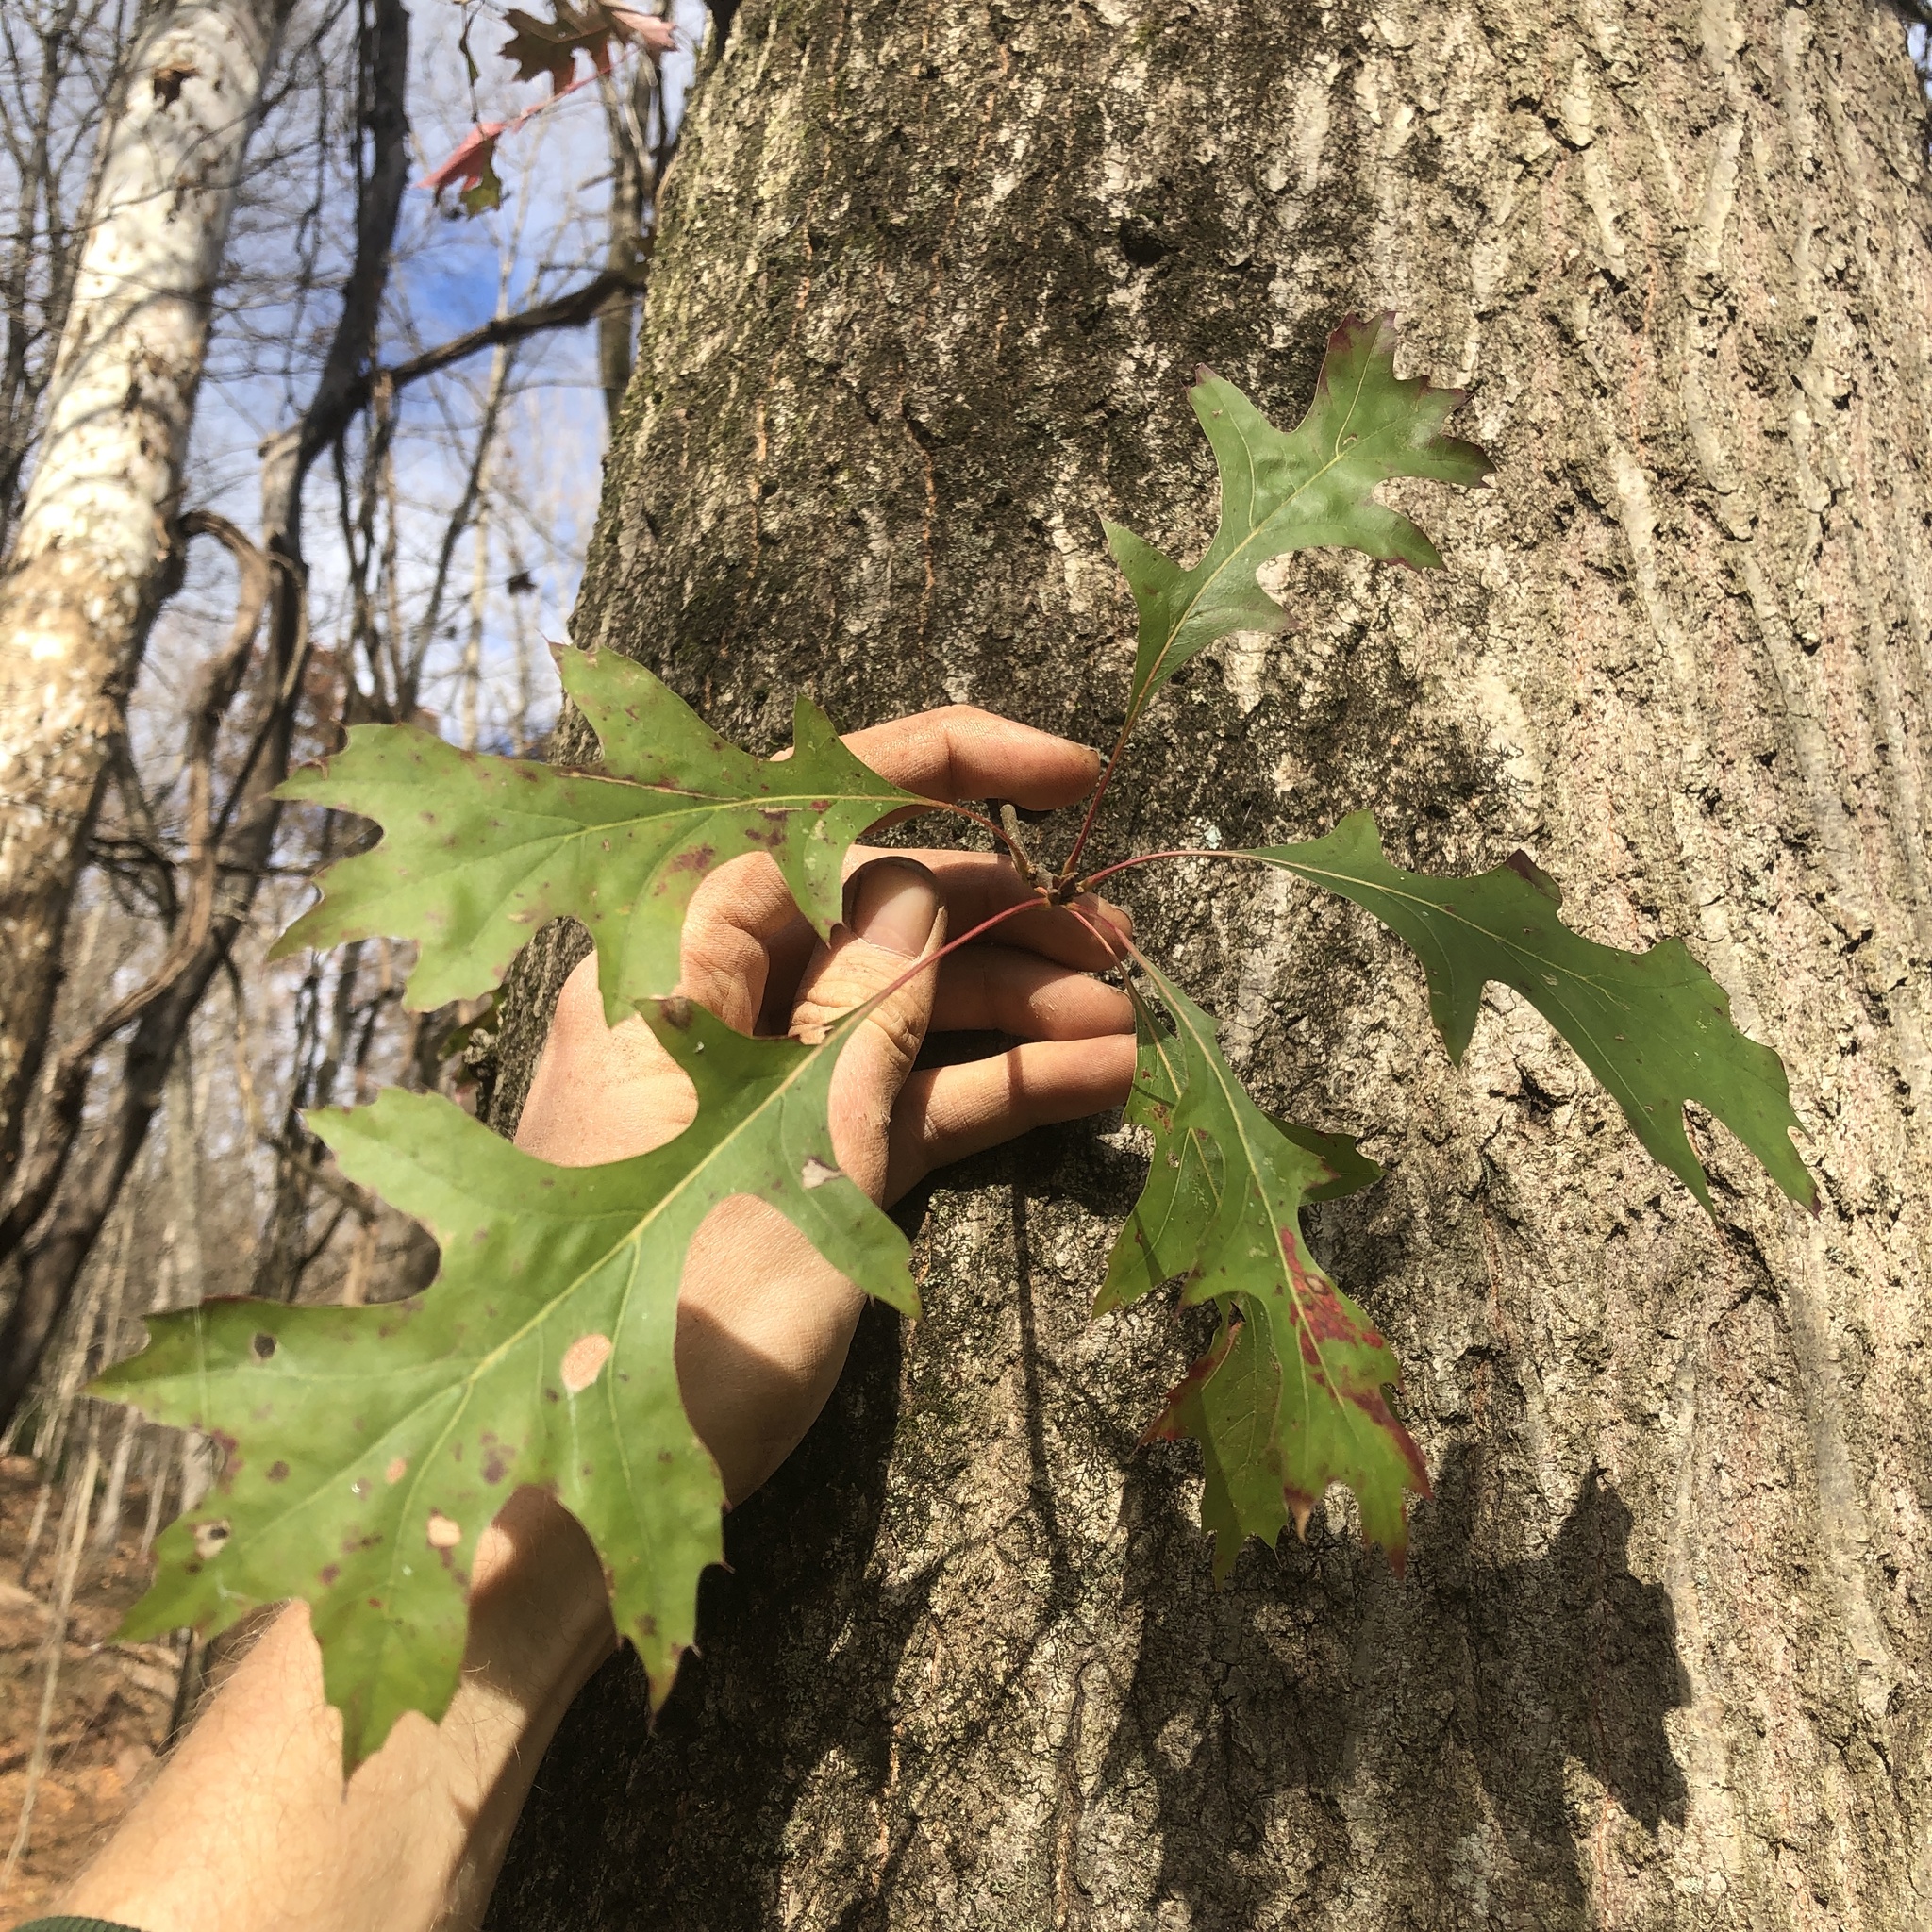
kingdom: Plantae
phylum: Tracheophyta
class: Magnoliopsida
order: Fagales
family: Fagaceae
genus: Quercus
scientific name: Quercus palustris
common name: Pin oak
